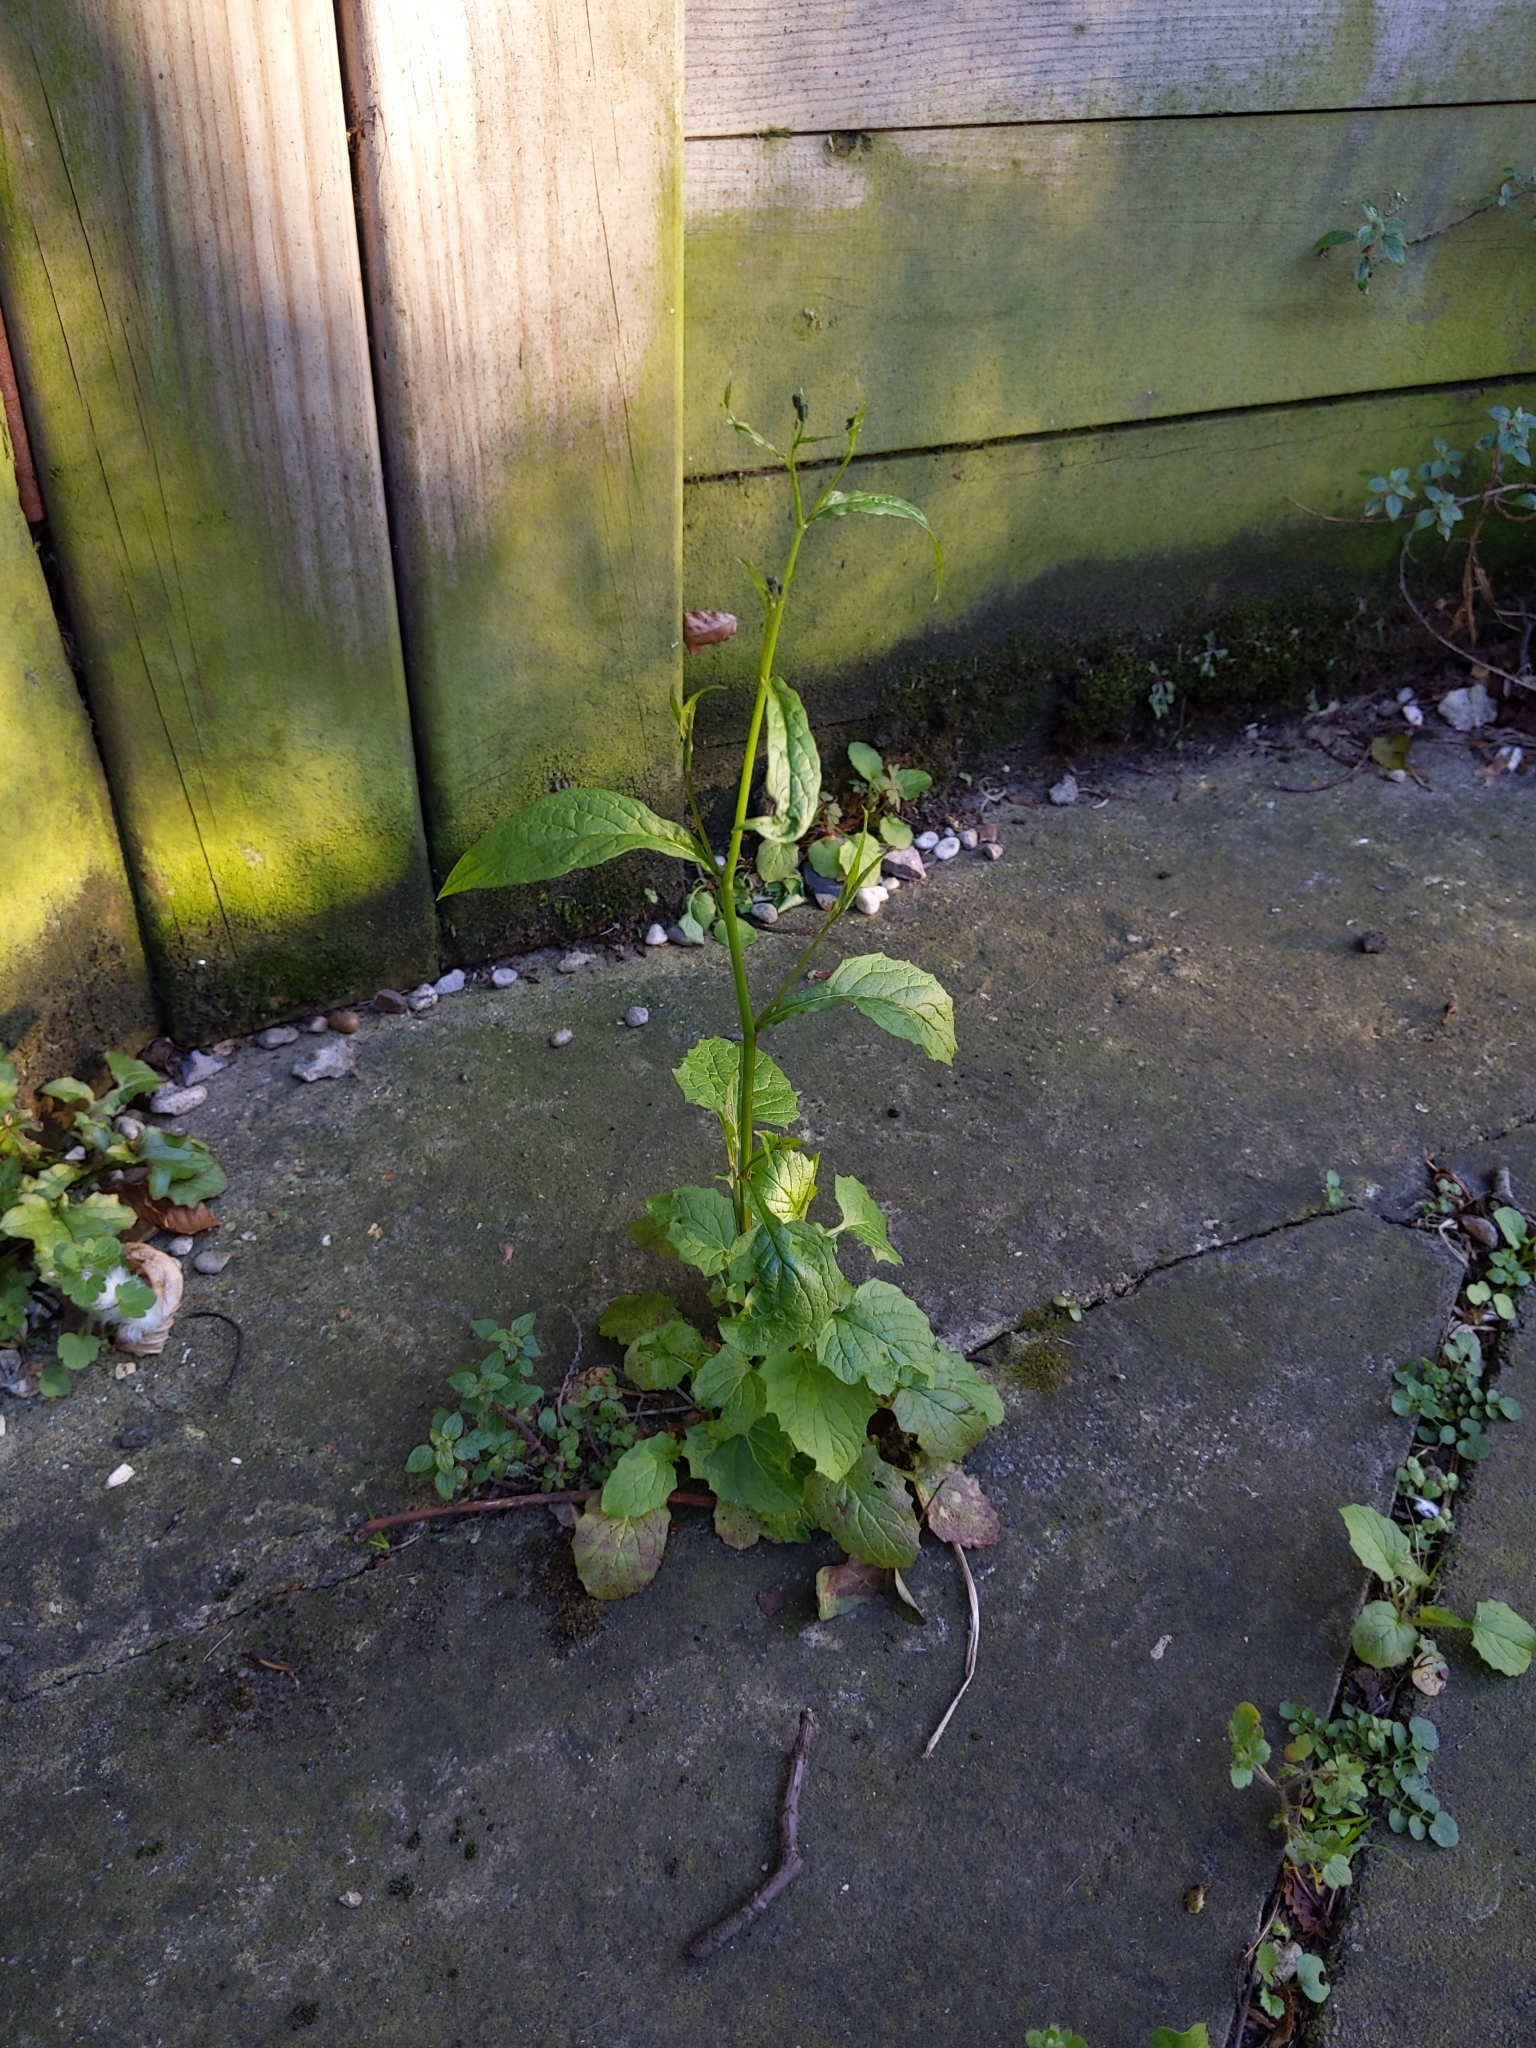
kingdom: Plantae
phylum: Tracheophyta
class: Magnoliopsida
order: Asterales
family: Asteraceae
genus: Lapsana
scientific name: Lapsana communis
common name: Nipplewort
